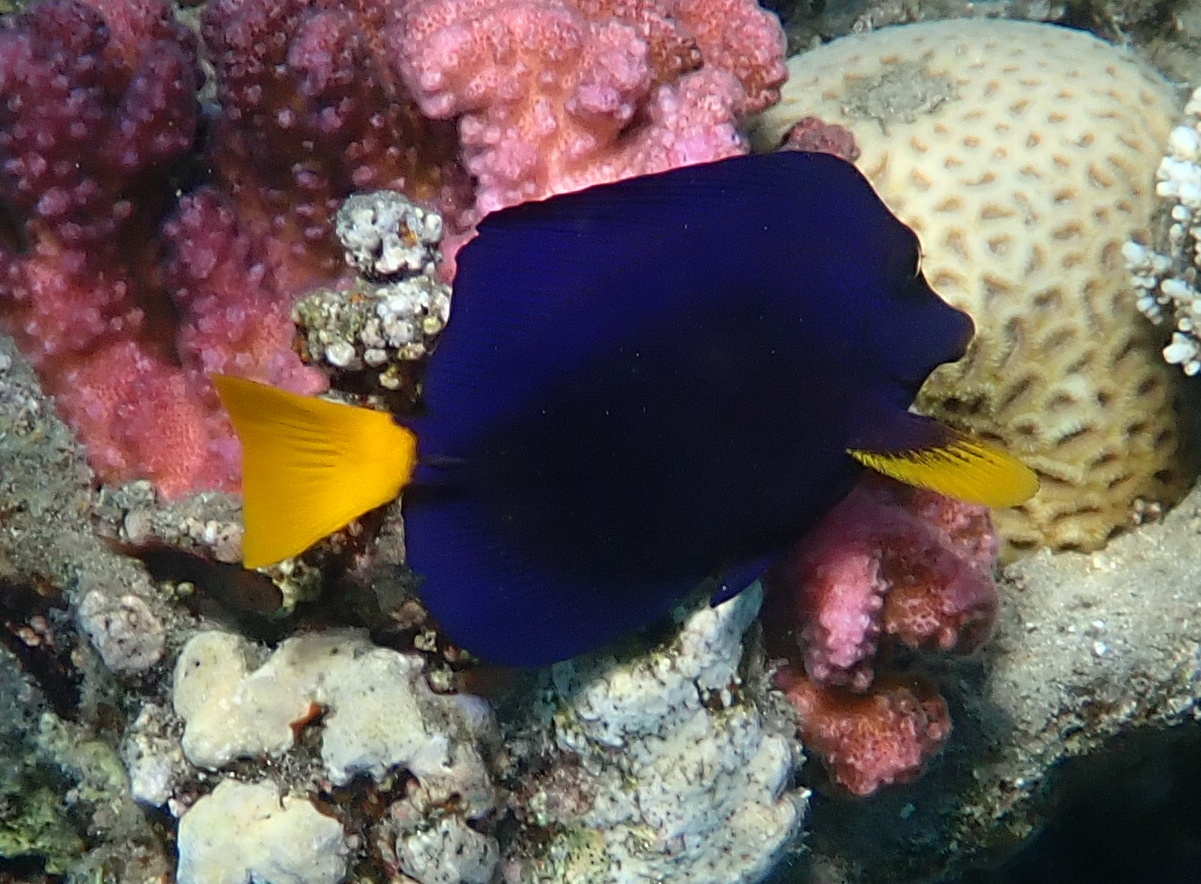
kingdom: Animalia
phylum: Chordata
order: Perciformes
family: Acanthuridae
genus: Zebrasoma
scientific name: Zebrasoma xanthurum
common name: Purple tang
